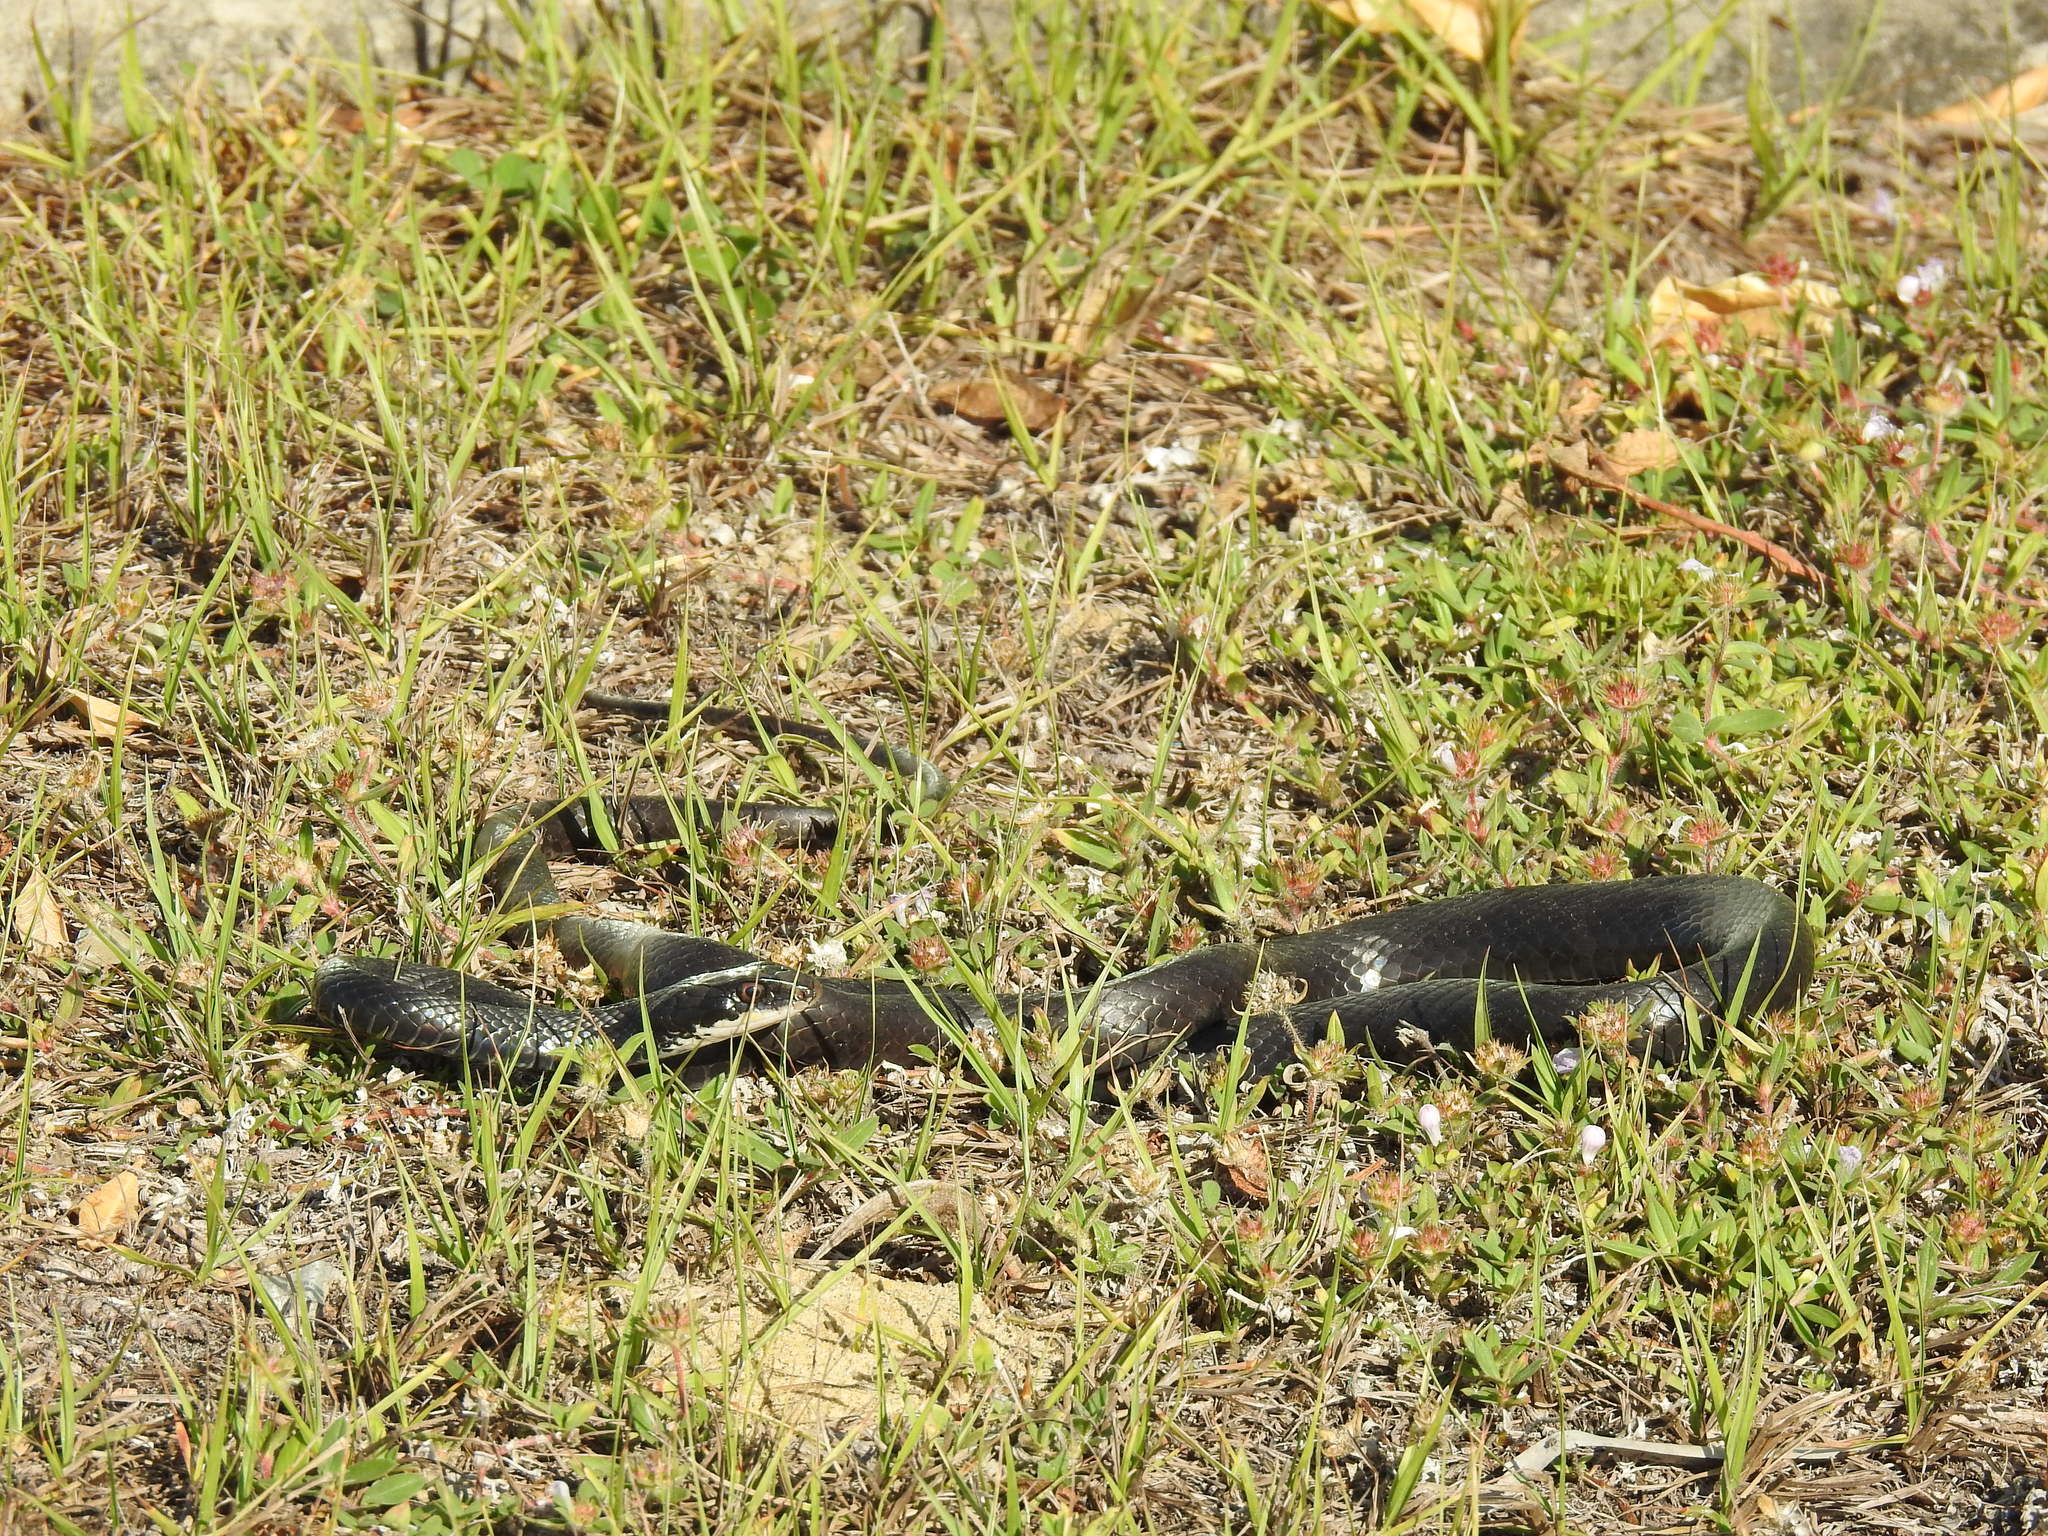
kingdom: Animalia
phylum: Chordata
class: Squamata
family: Colubridae
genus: Coluber
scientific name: Coluber constrictor
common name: Eastern racer
